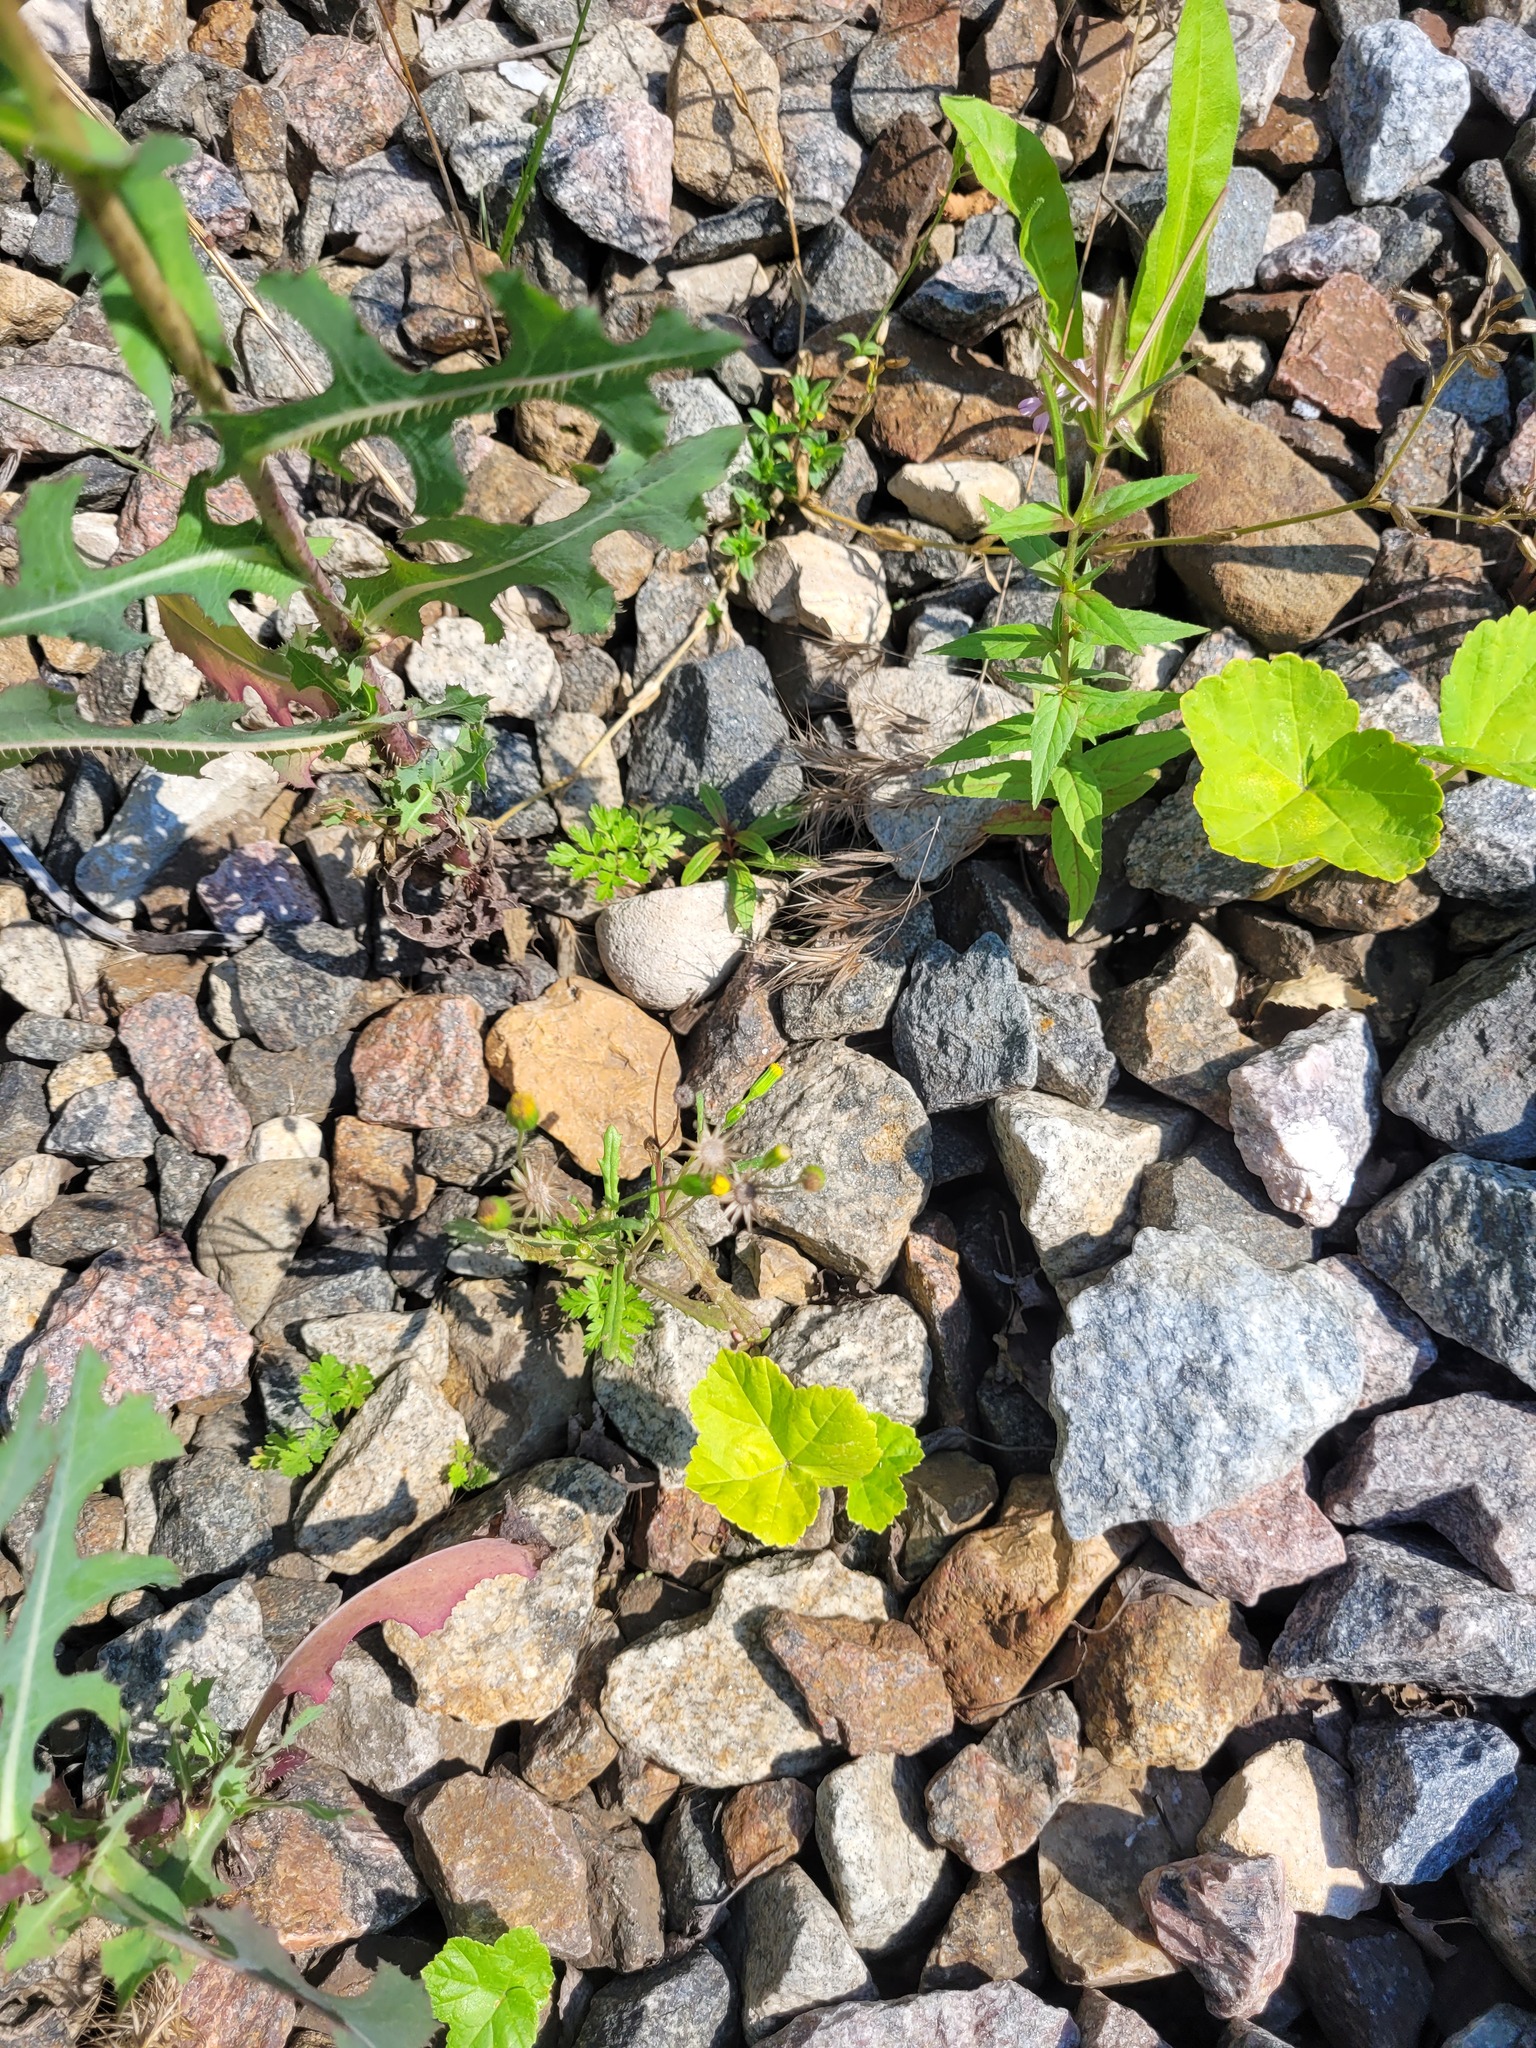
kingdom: Plantae
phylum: Tracheophyta
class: Magnoliopsida
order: Asterales
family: Asteraceae
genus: Senecio
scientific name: Senecio dubitabilis
